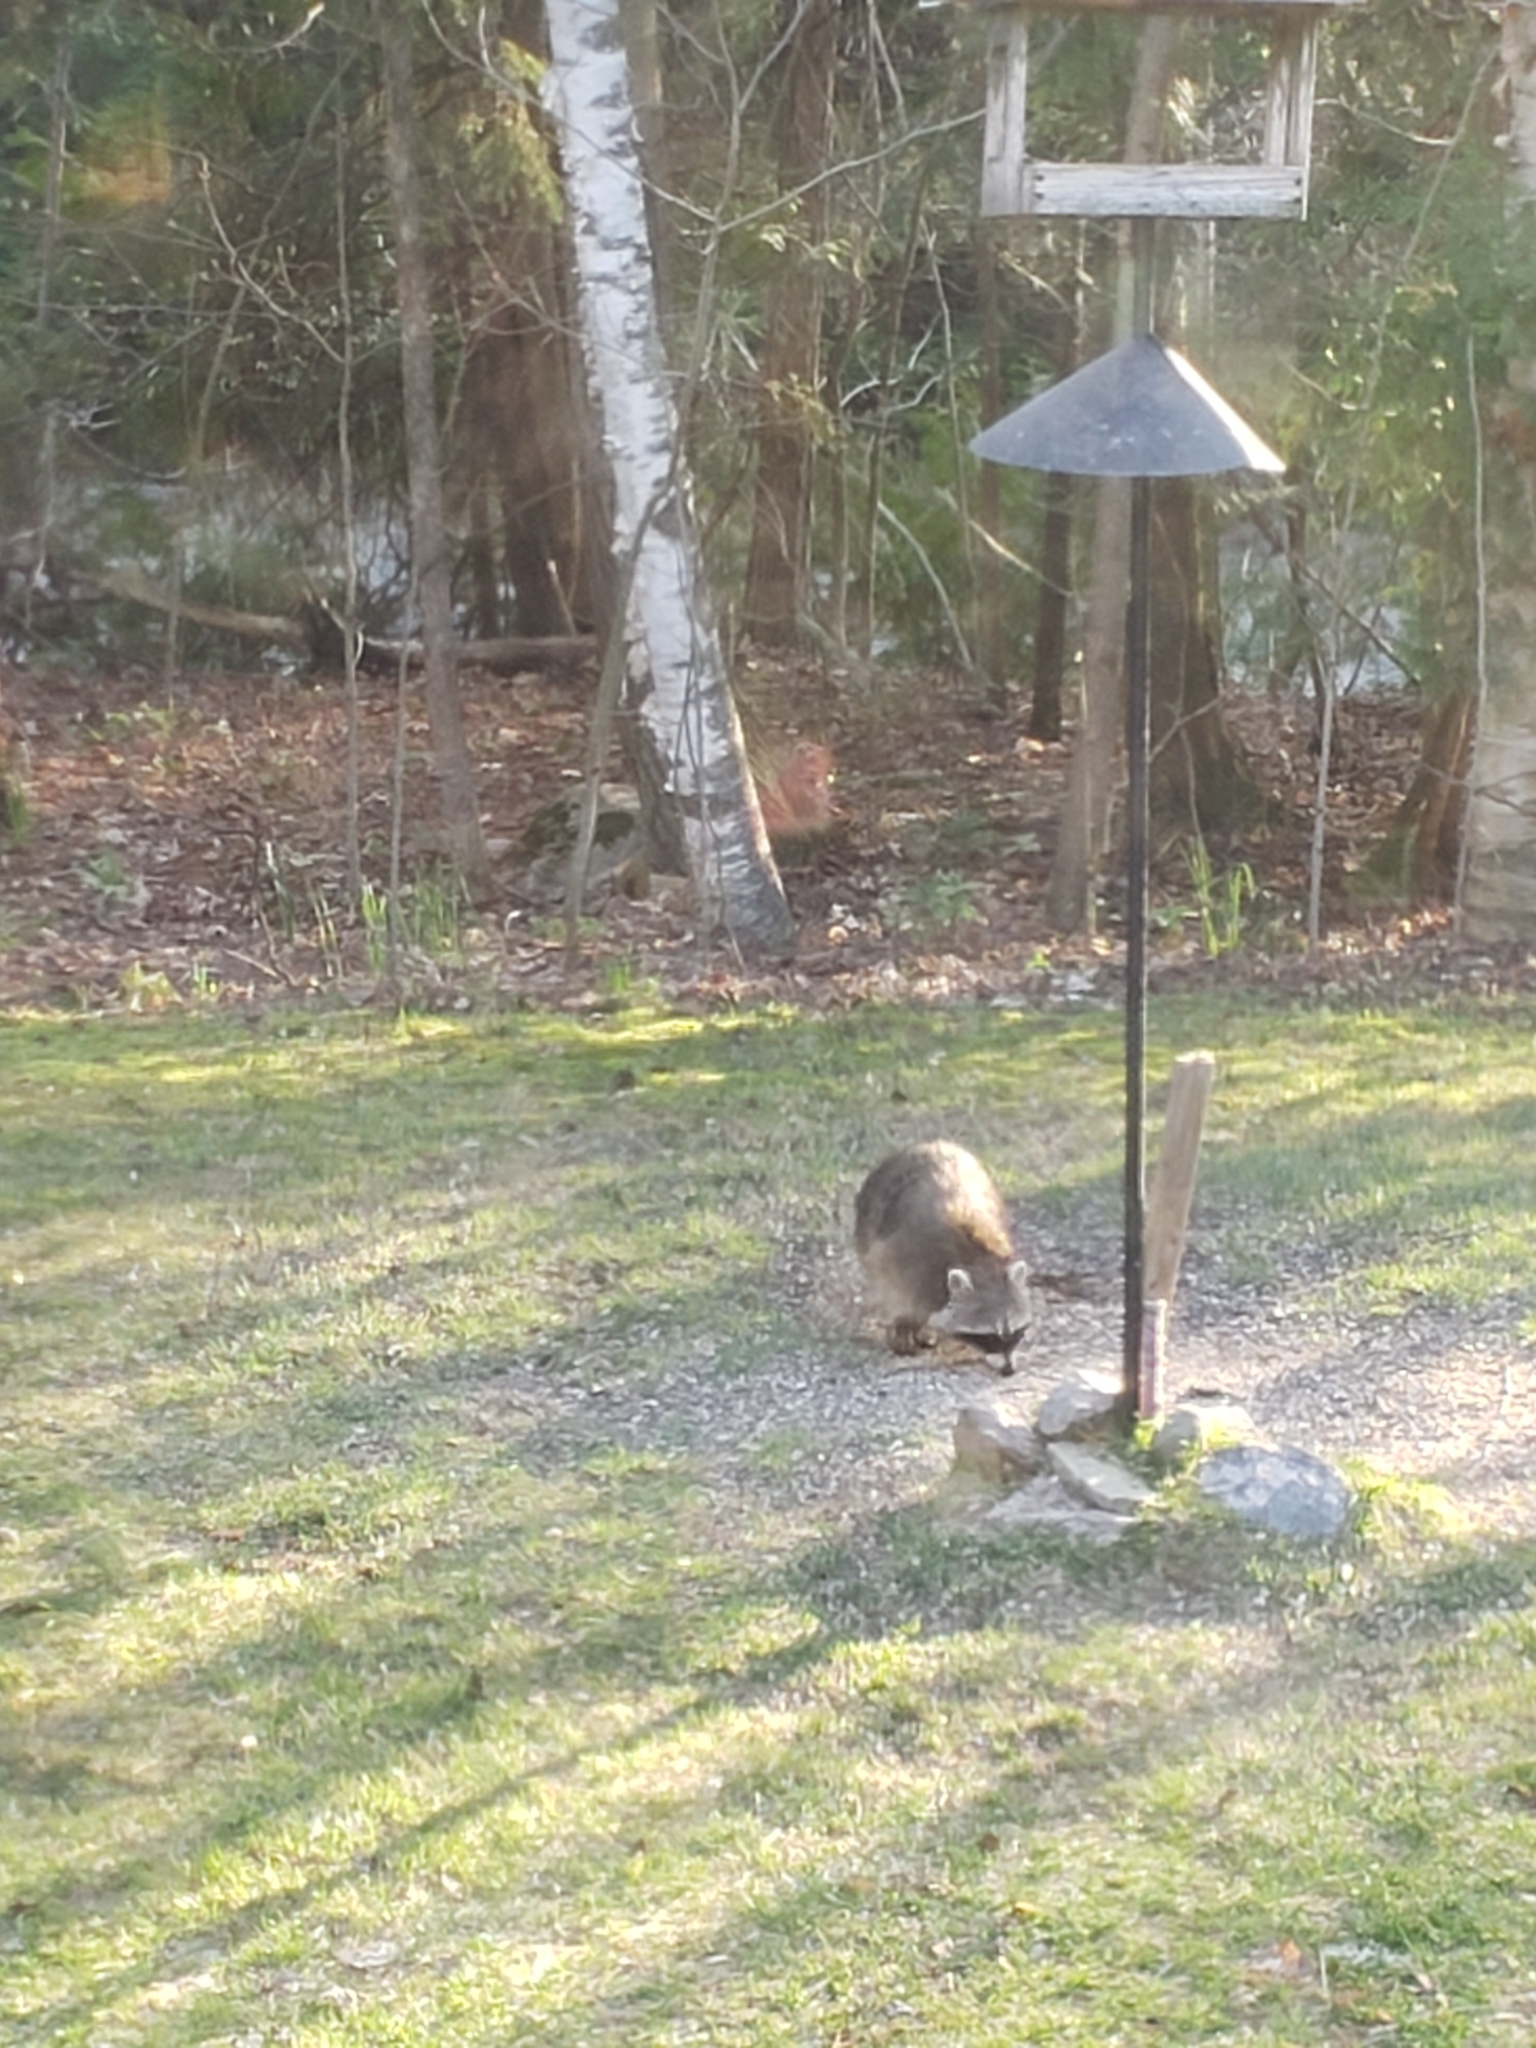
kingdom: Animalia
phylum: Chordata
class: Mammalia
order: Carnivora
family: Procyonidae
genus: Procyon
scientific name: Procyon lotor
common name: Raccoon
